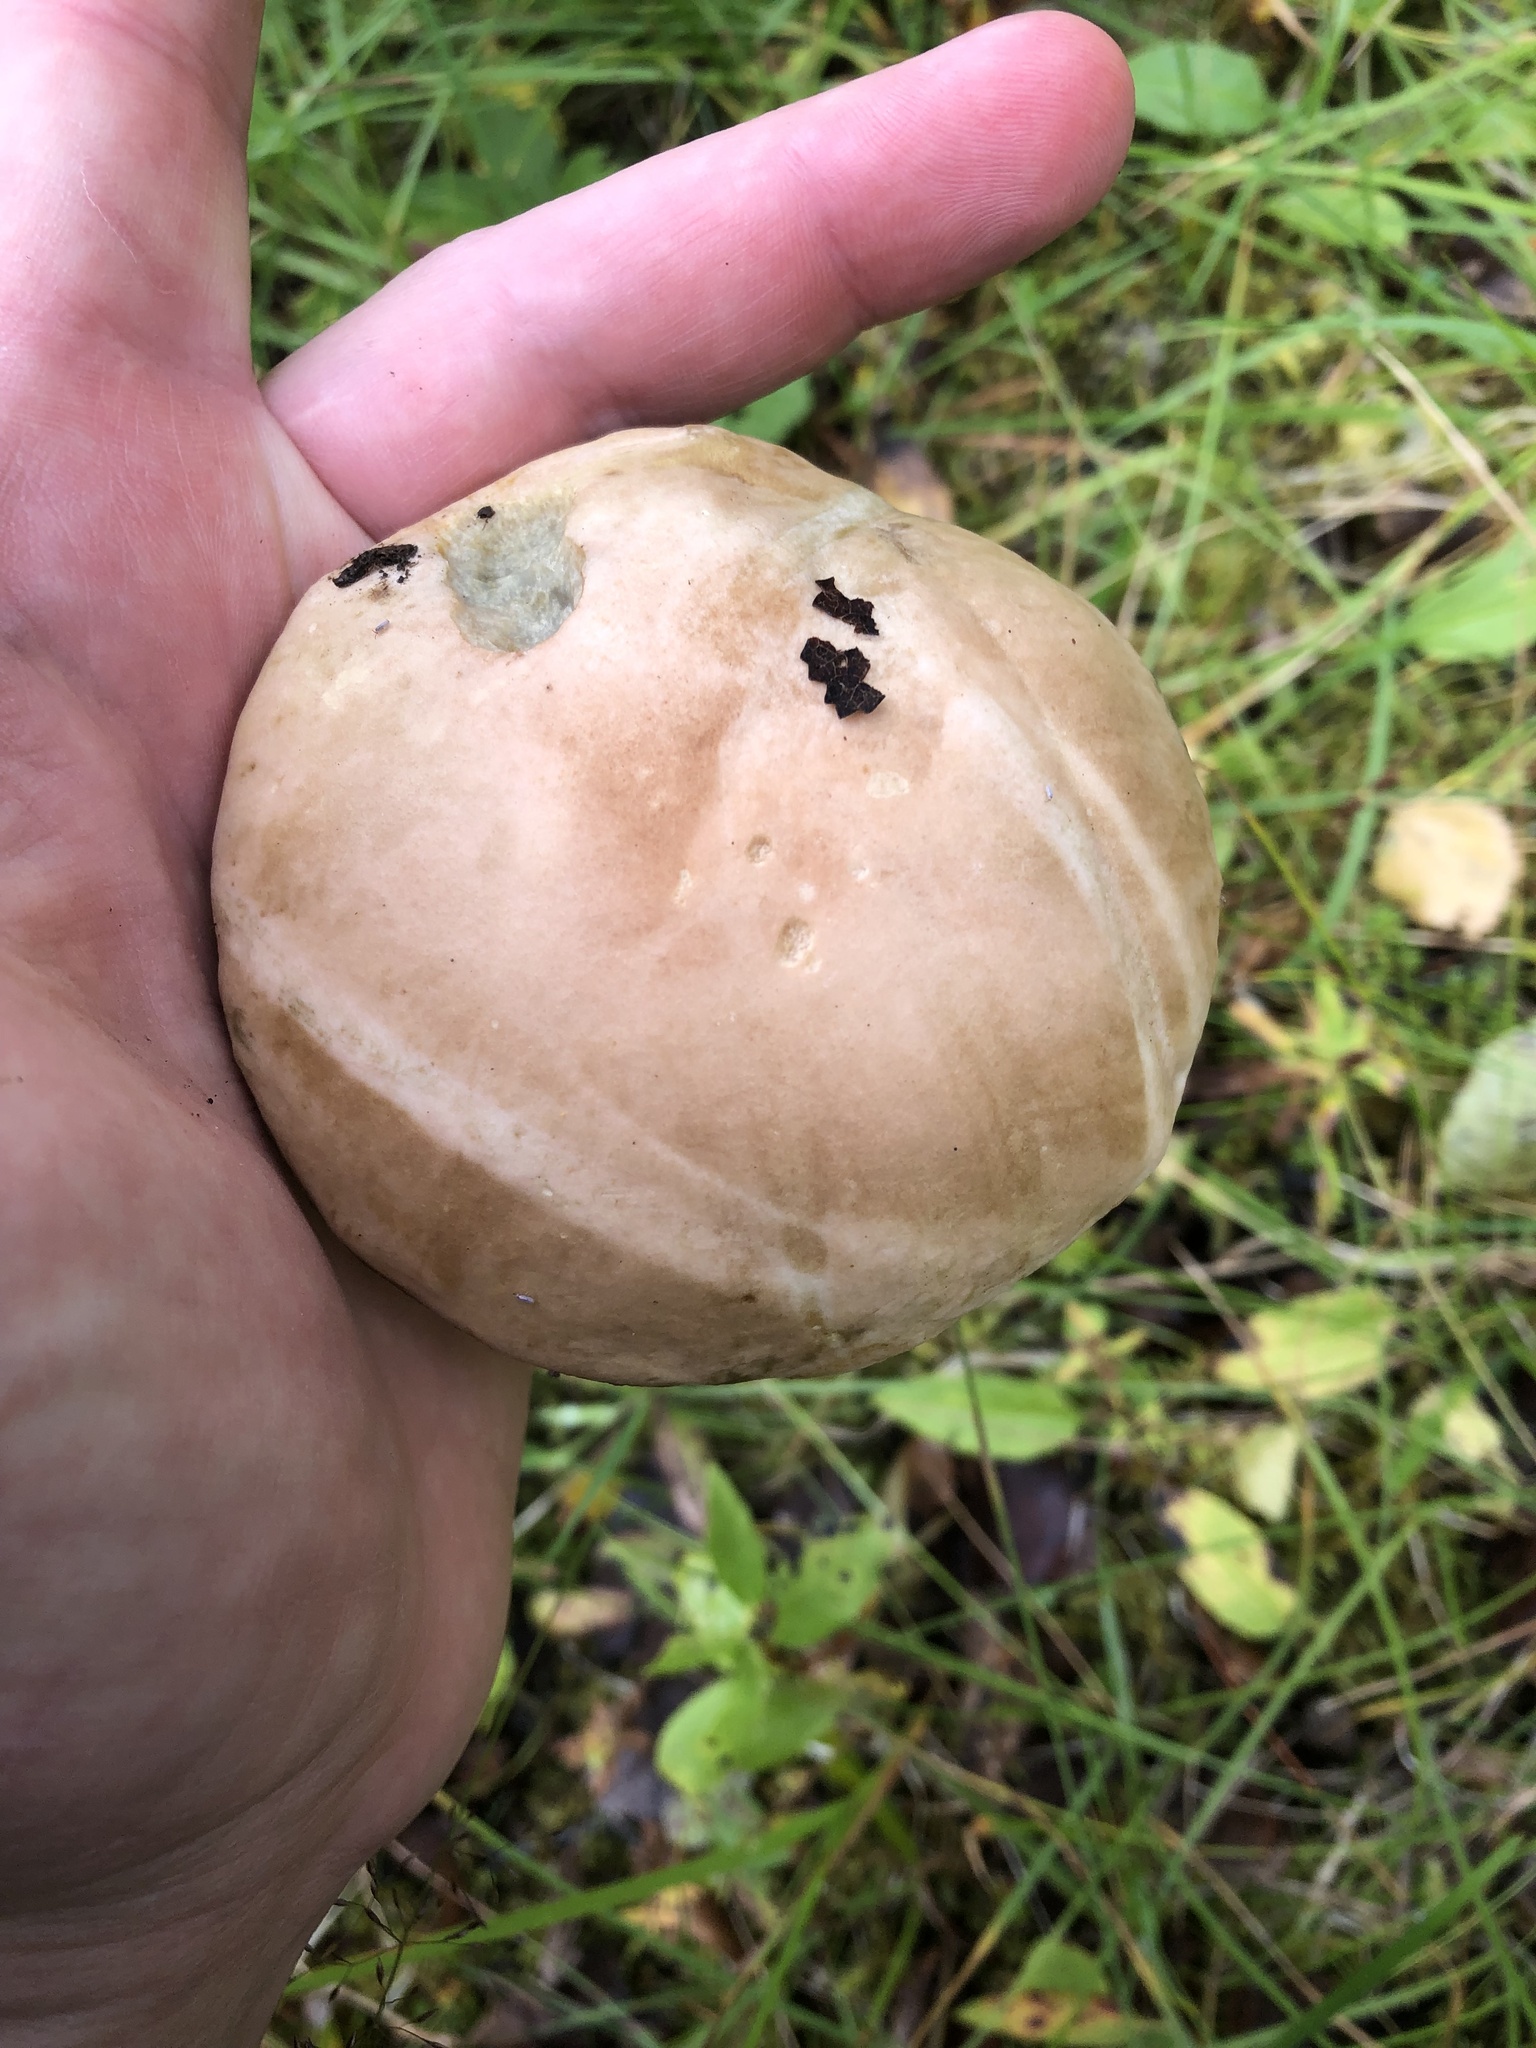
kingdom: Fungi
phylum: Basidiomycota
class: Agaricomycetes
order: Boletales
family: Boletaceae
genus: Leccinum
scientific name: Leccinum holopus
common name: Ghost bolete
